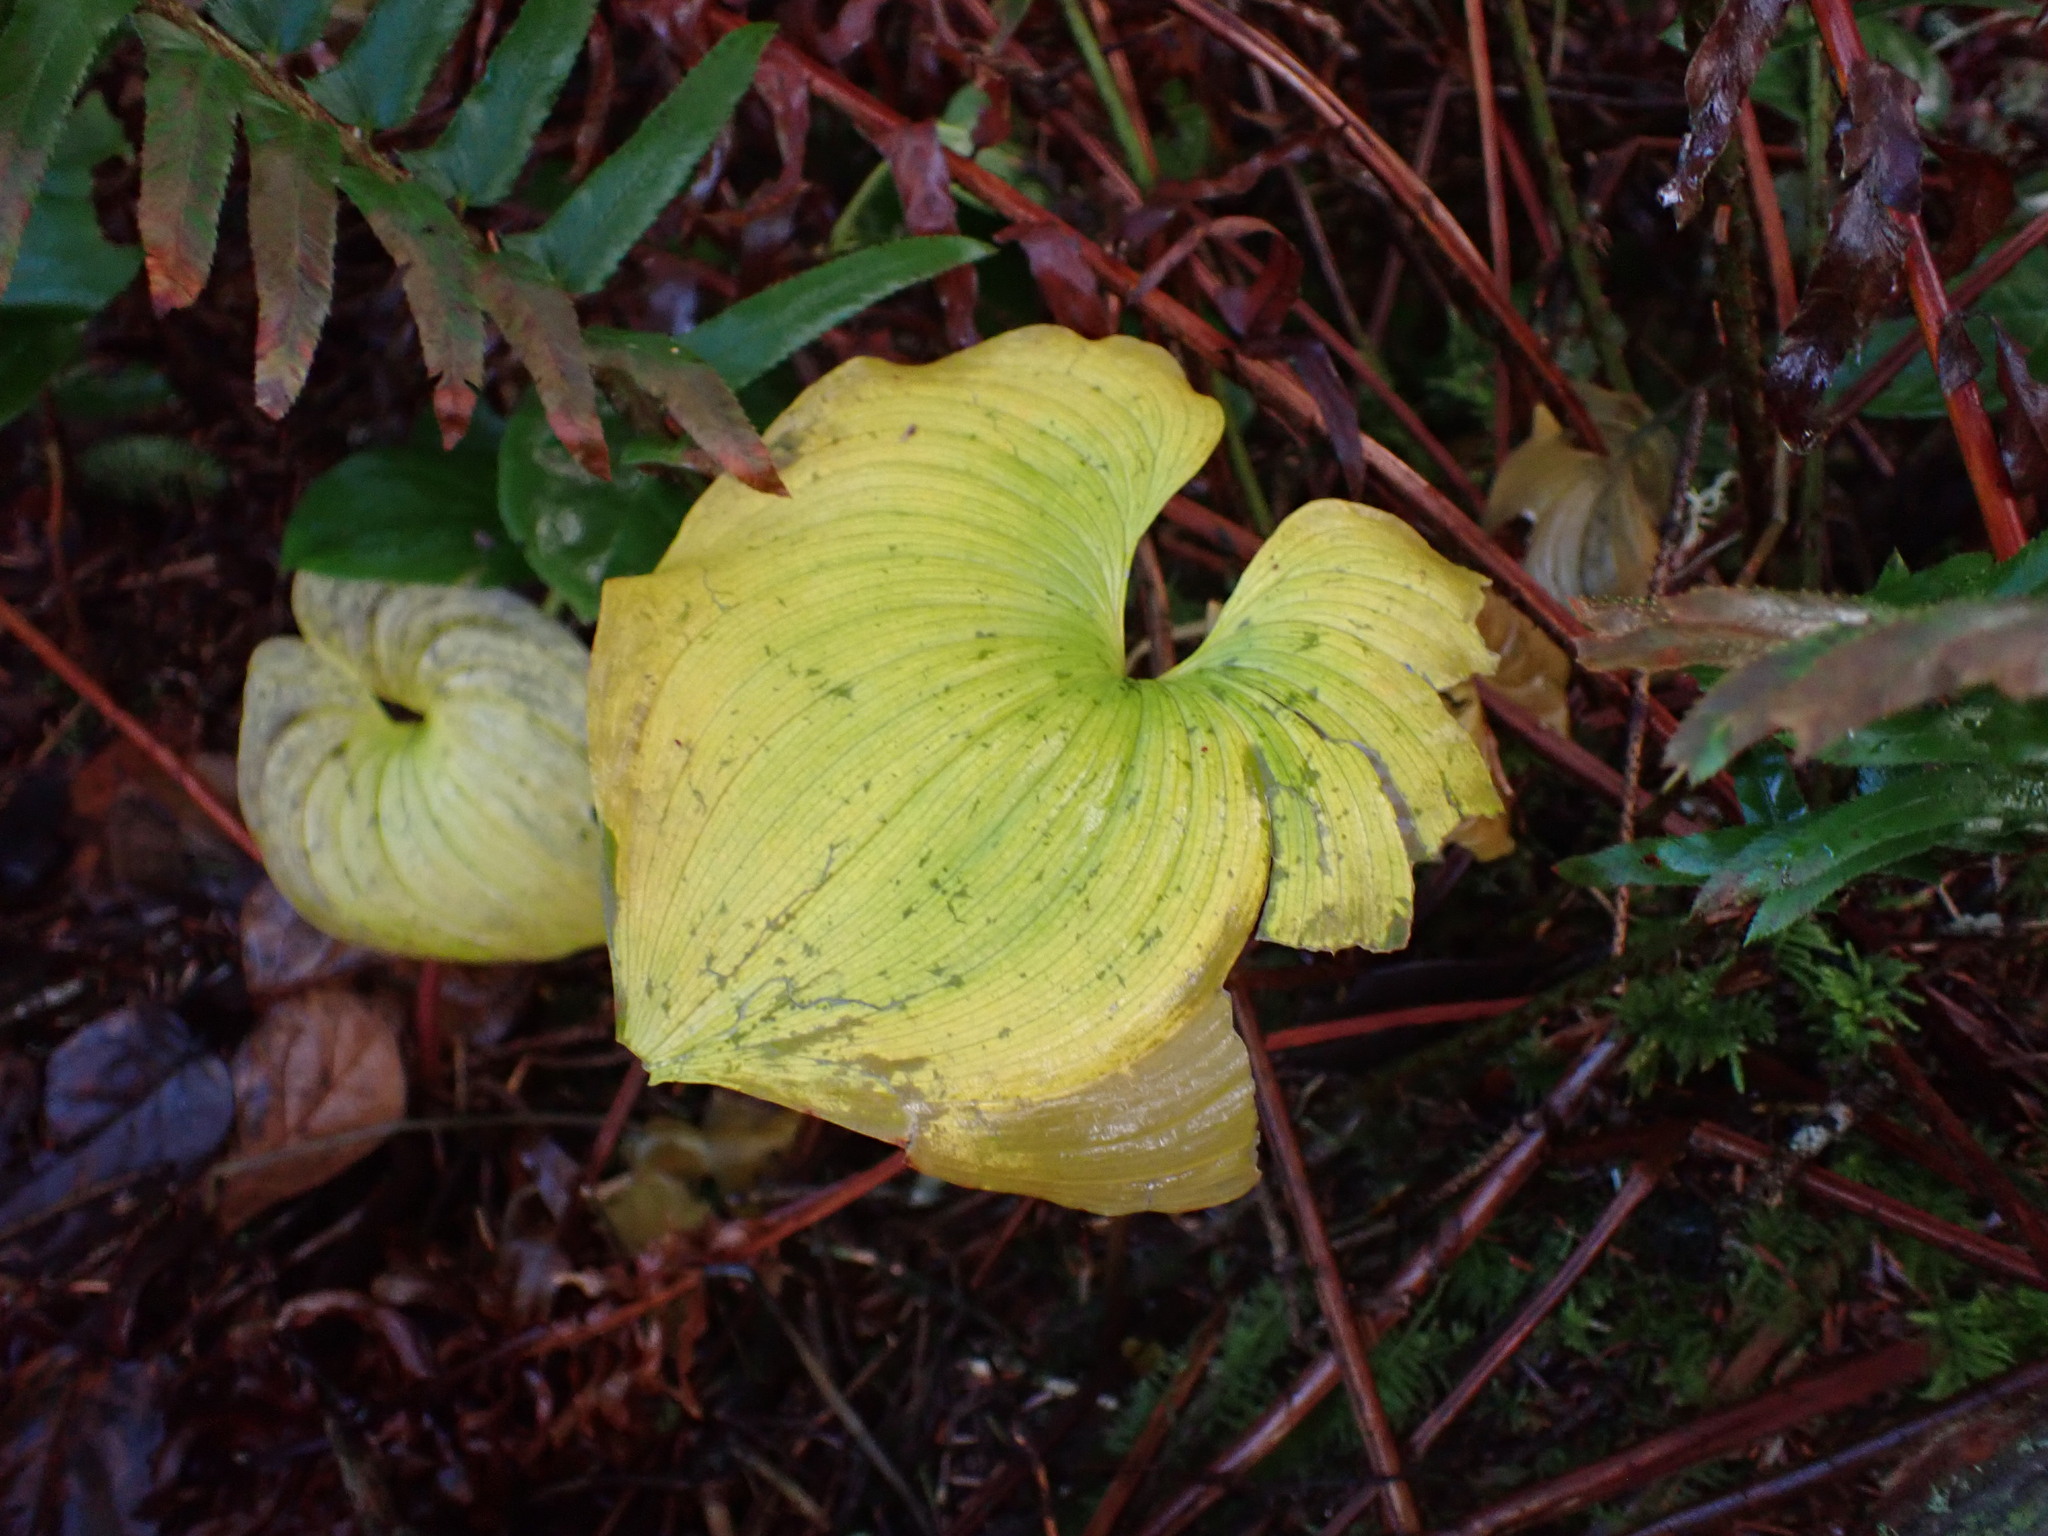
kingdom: Plantae
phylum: Tracheophyta
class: Liliopsida
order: Asparagales
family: Asparagaceae
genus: Maianthemum
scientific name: Maianthemum dilatatum
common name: False lily-of-the-valley
